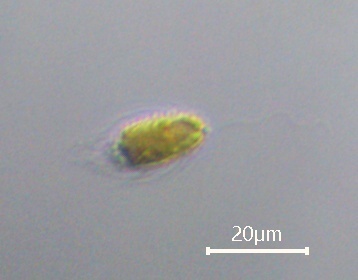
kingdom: Chromista
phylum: Ochrophyta
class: Chrysophyceae
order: Synurales
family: Mallomonadaceae
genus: Mallomonas
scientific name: Mallomonas
